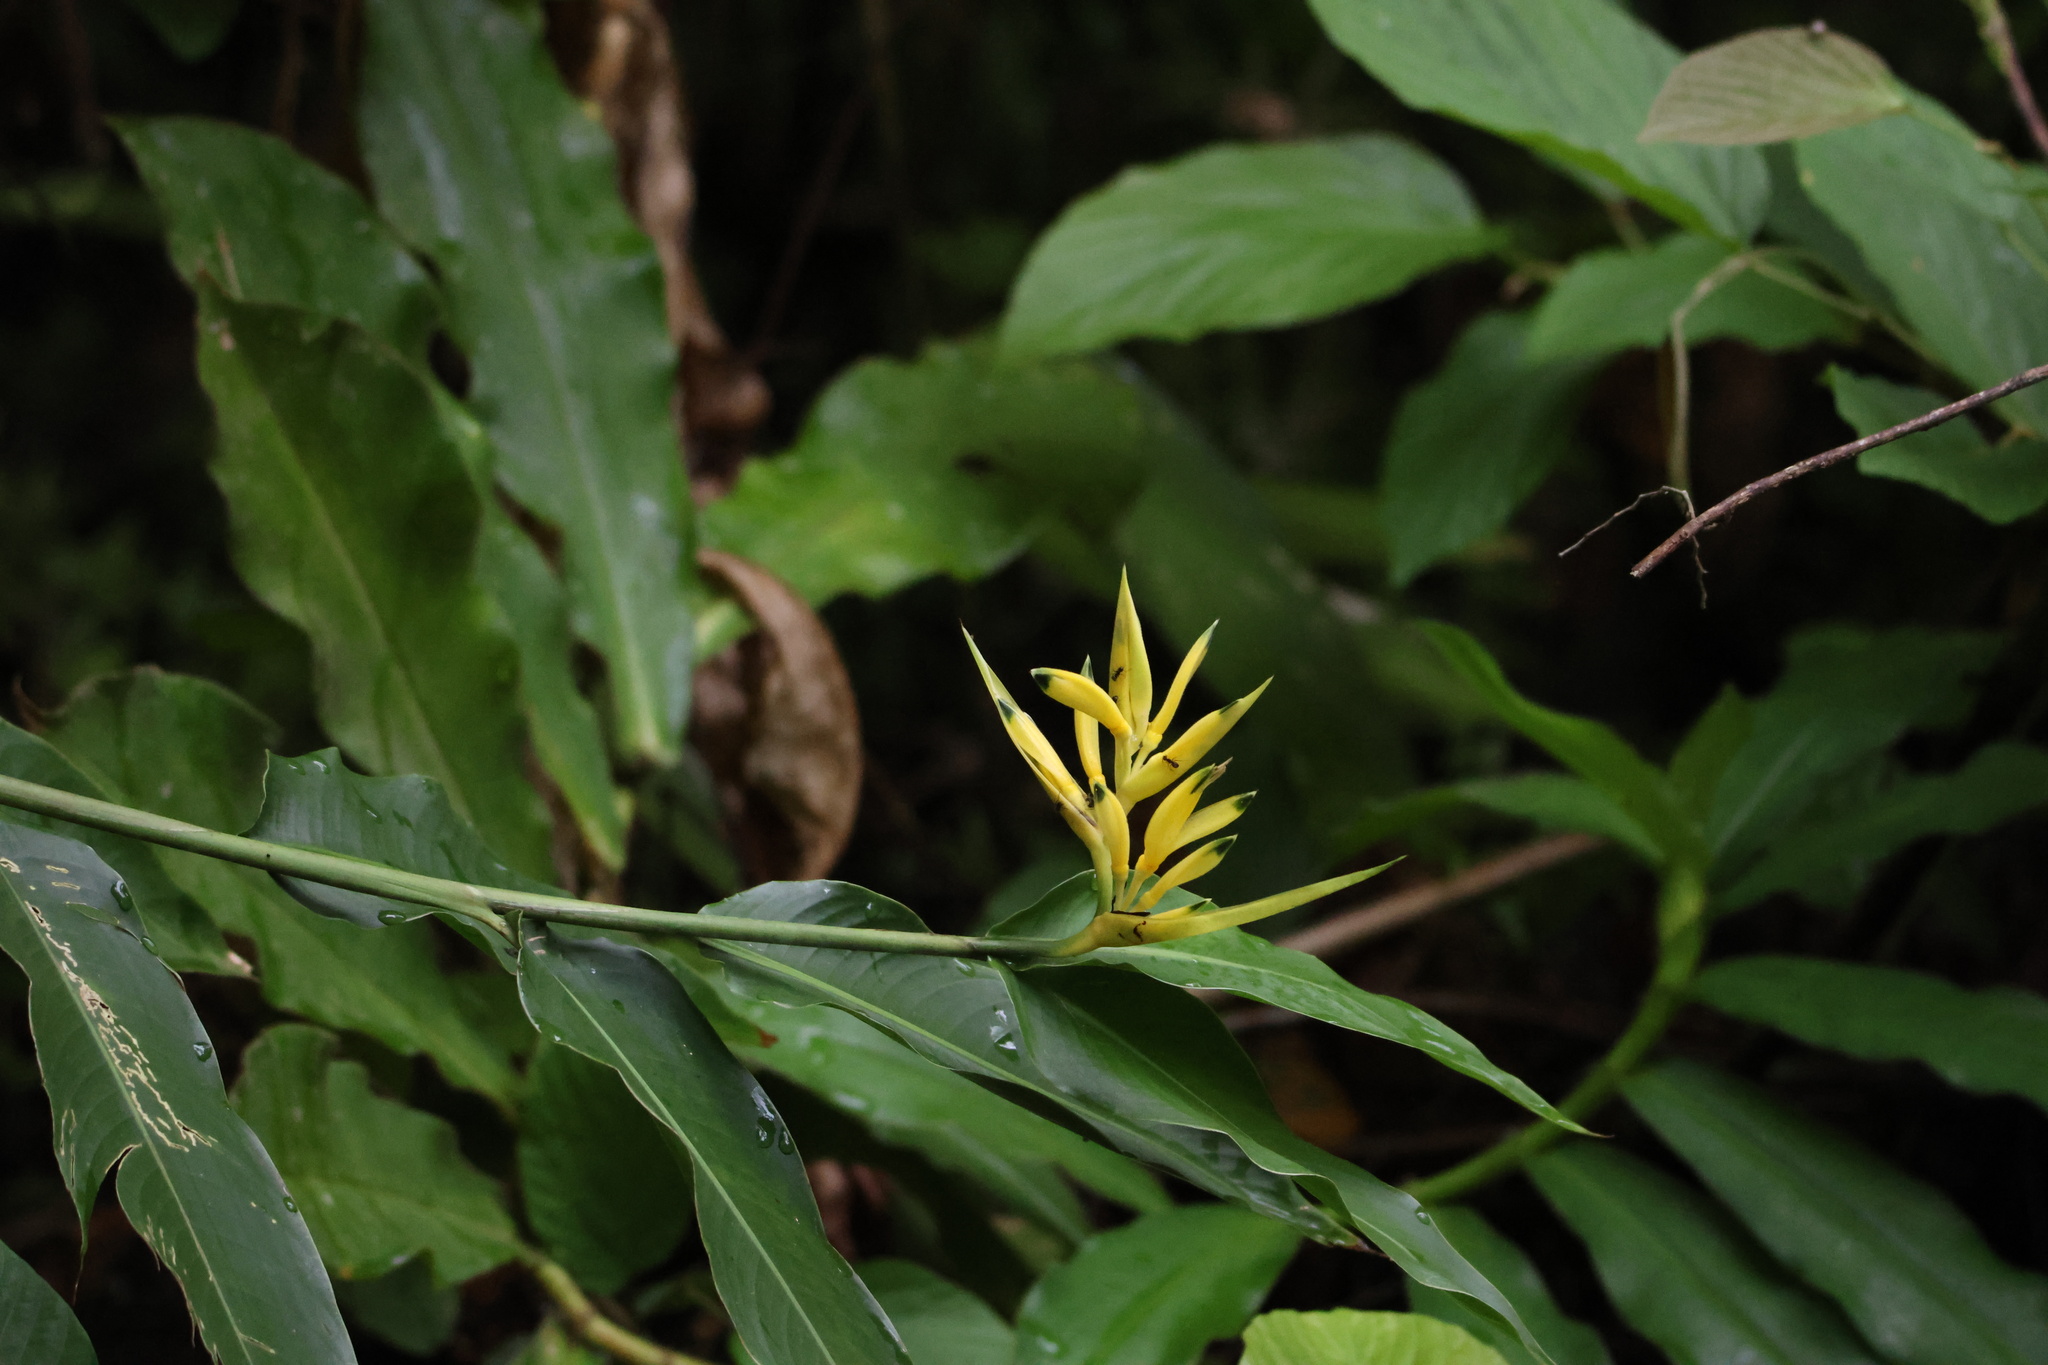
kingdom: Plantae
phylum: Tracheophyta
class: Liliopsida
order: Zingiberales
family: Heliconiaceae
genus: Heliconia
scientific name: Heliconia hirsuta
